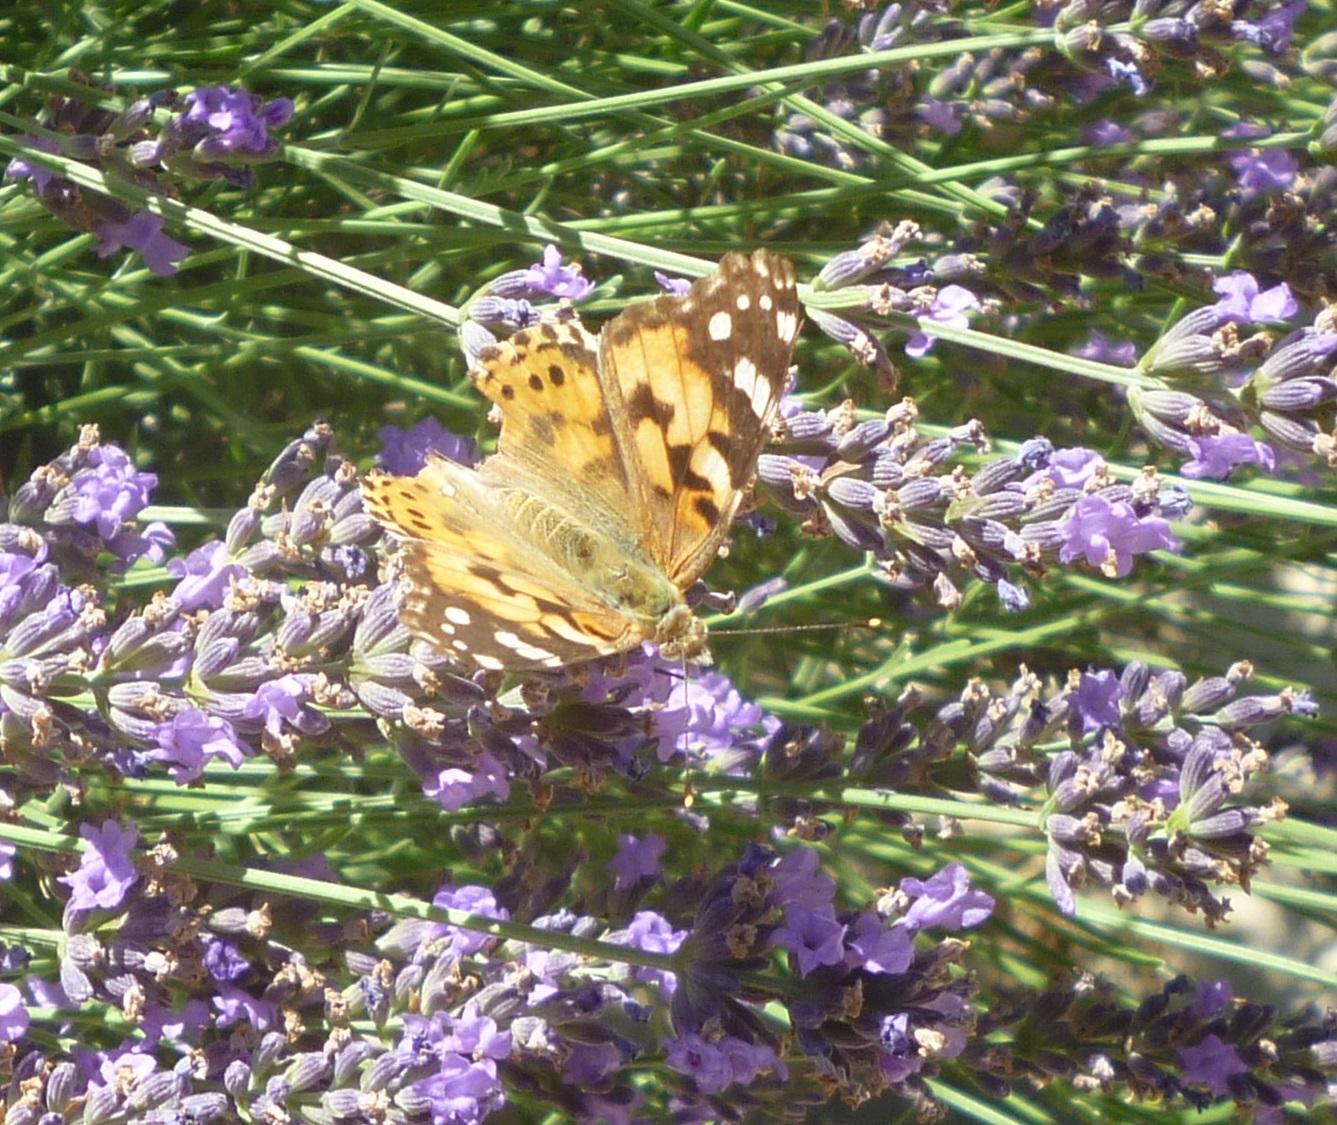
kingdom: Animalia
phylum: Arthropoda
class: Insecta
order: Lepidoptera
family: Nymphalidae
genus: Vanessa
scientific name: Vanessa cardui
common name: Painted lady
